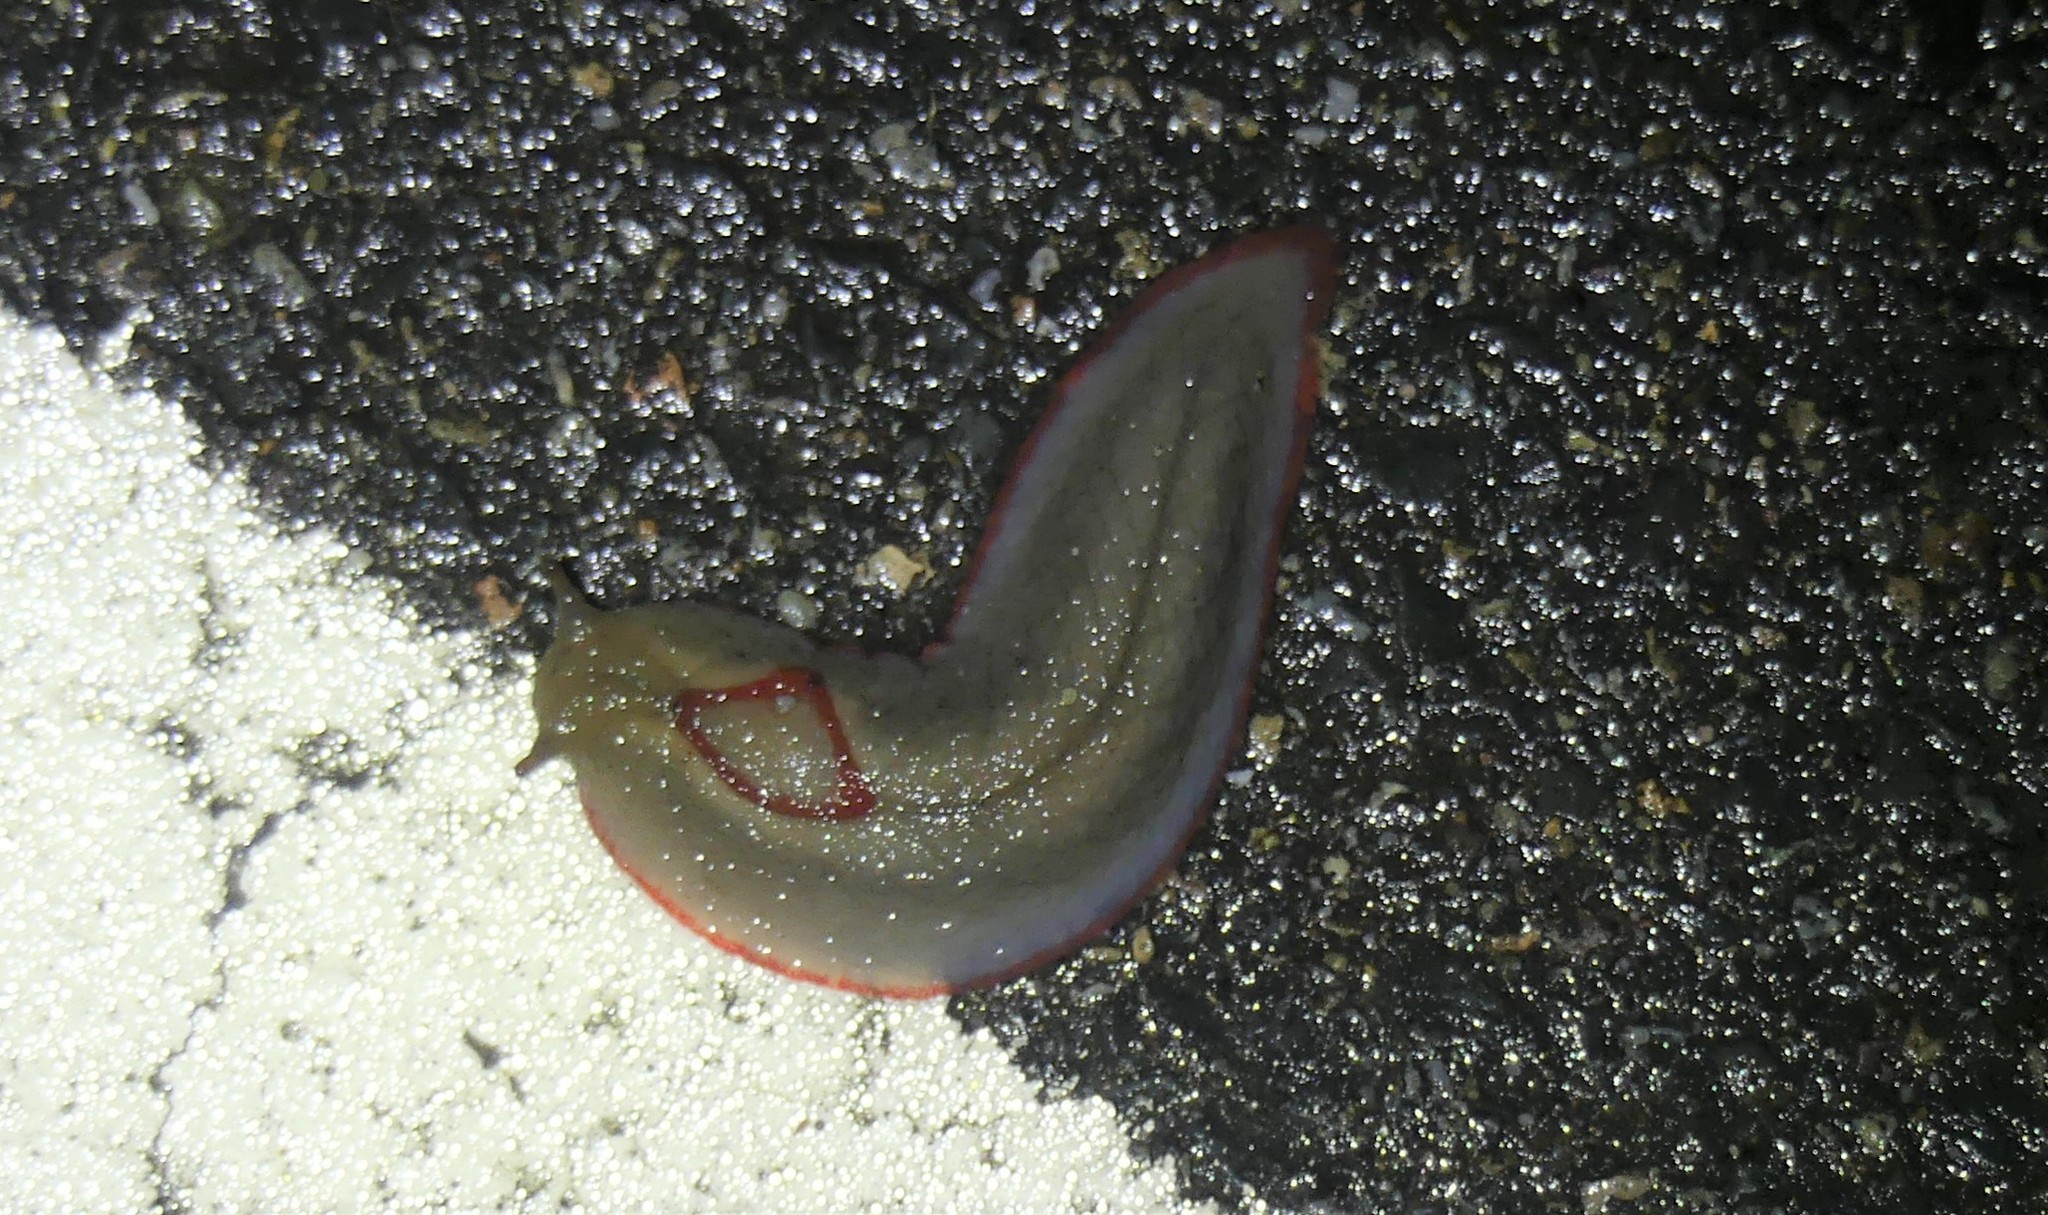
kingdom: Animalia
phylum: Mollusca
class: Gastropoda
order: Stylommatophora
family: Athoracophoridae
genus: Triboniophorus
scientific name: Triboniophorus graeffei
